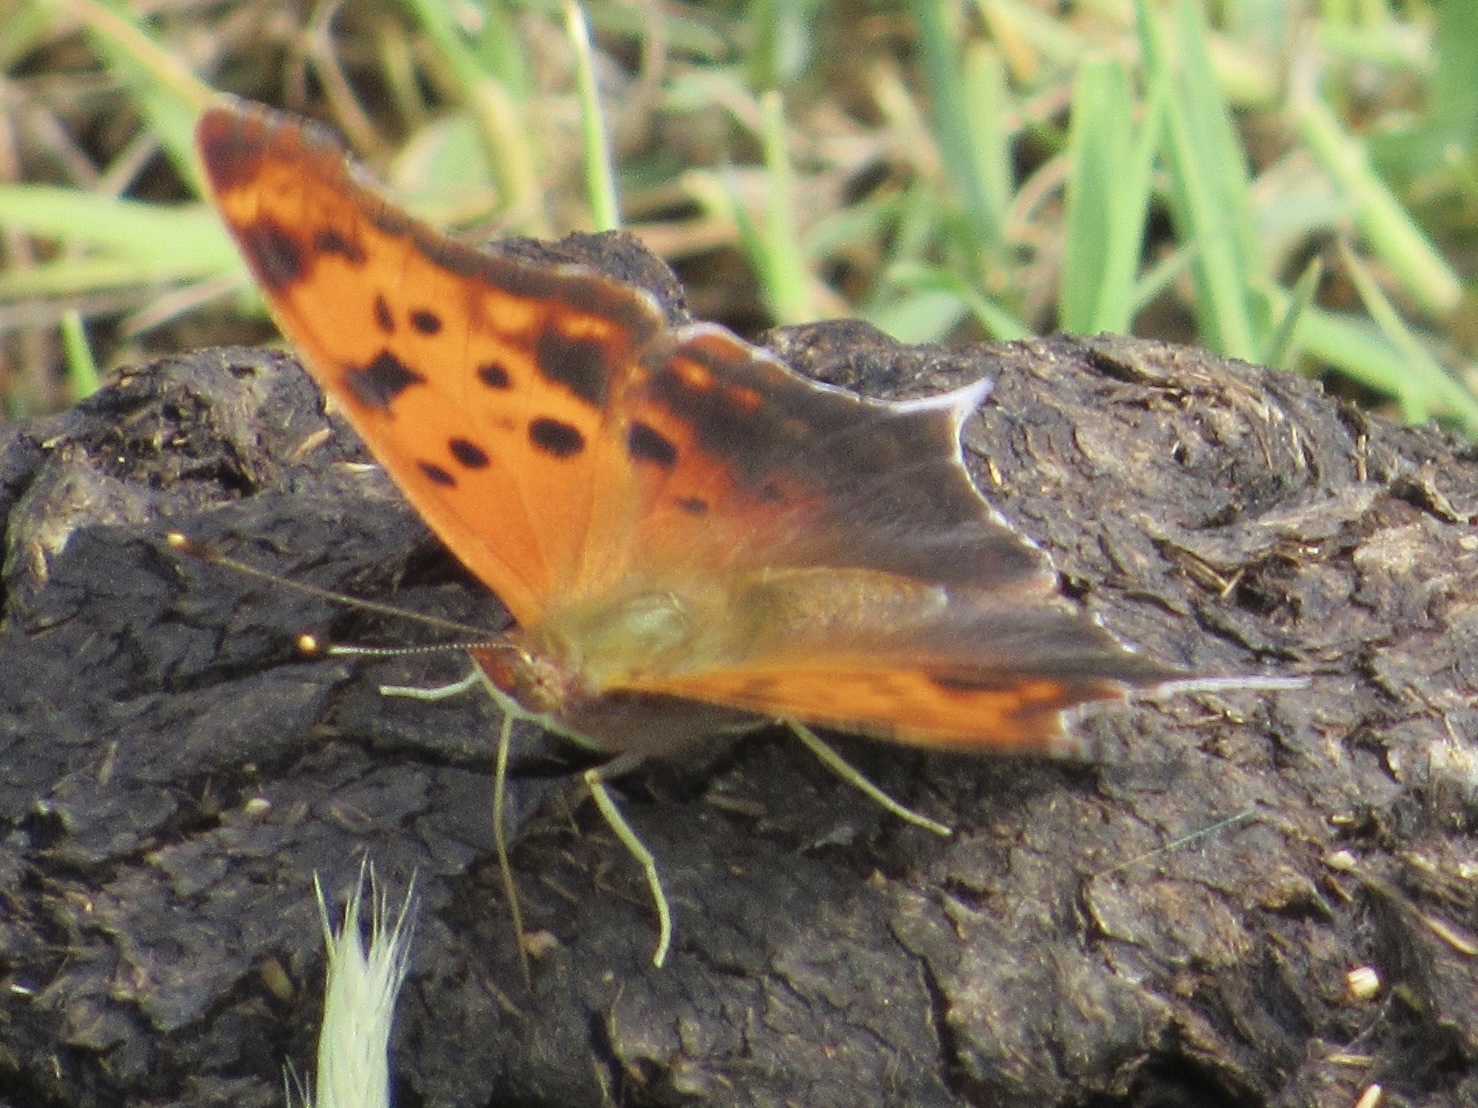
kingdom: Animalia
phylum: Arthropoda
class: Insecta
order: Lepidoptera
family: Nymphalidae
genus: Polygonia
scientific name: Polygonia interrogationis
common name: Question mark
